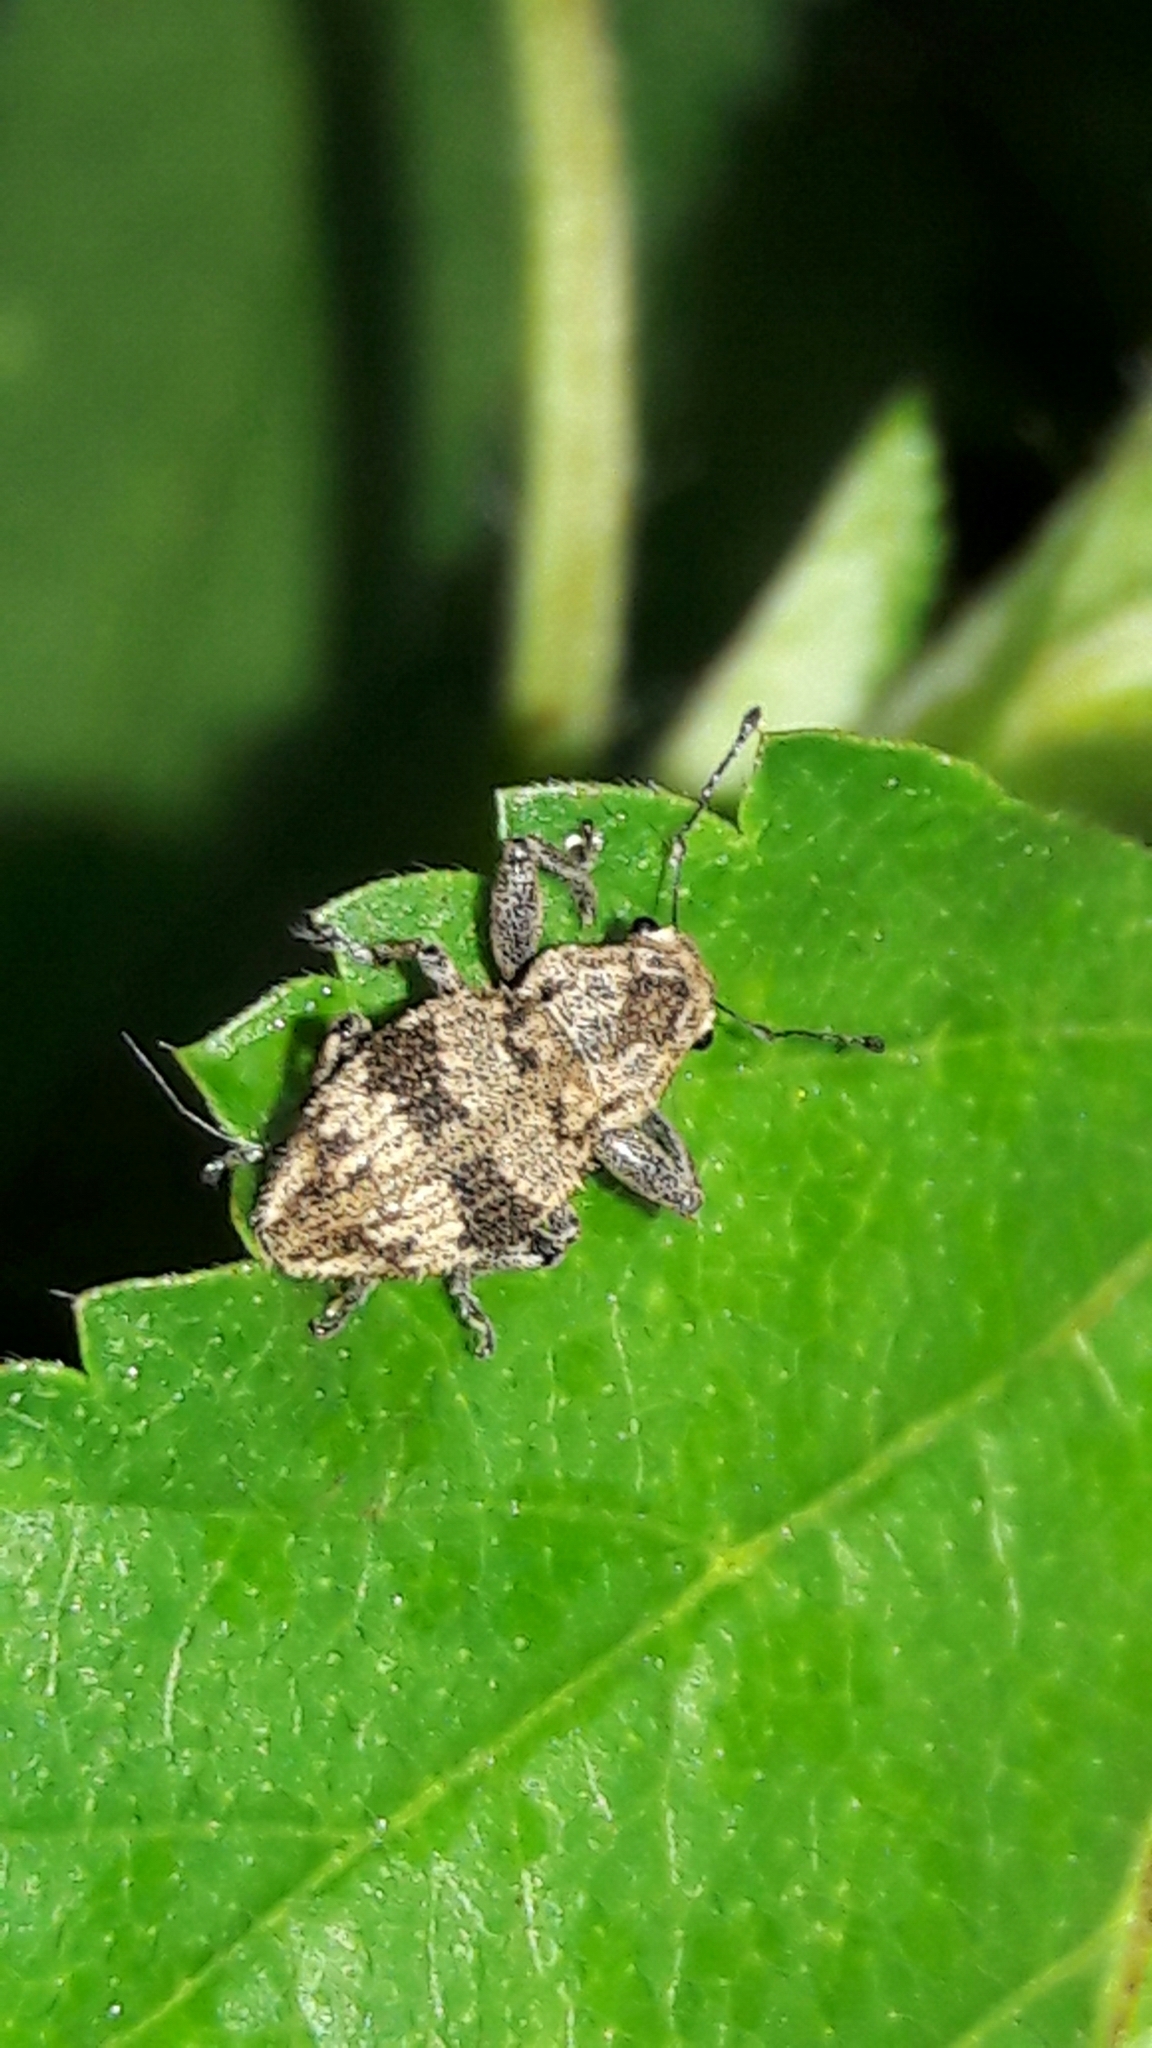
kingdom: Animalia
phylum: Arthropoda
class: Insecta
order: Coleoptera
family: Curculionidae
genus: Pantomorus
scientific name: Pantomorus
